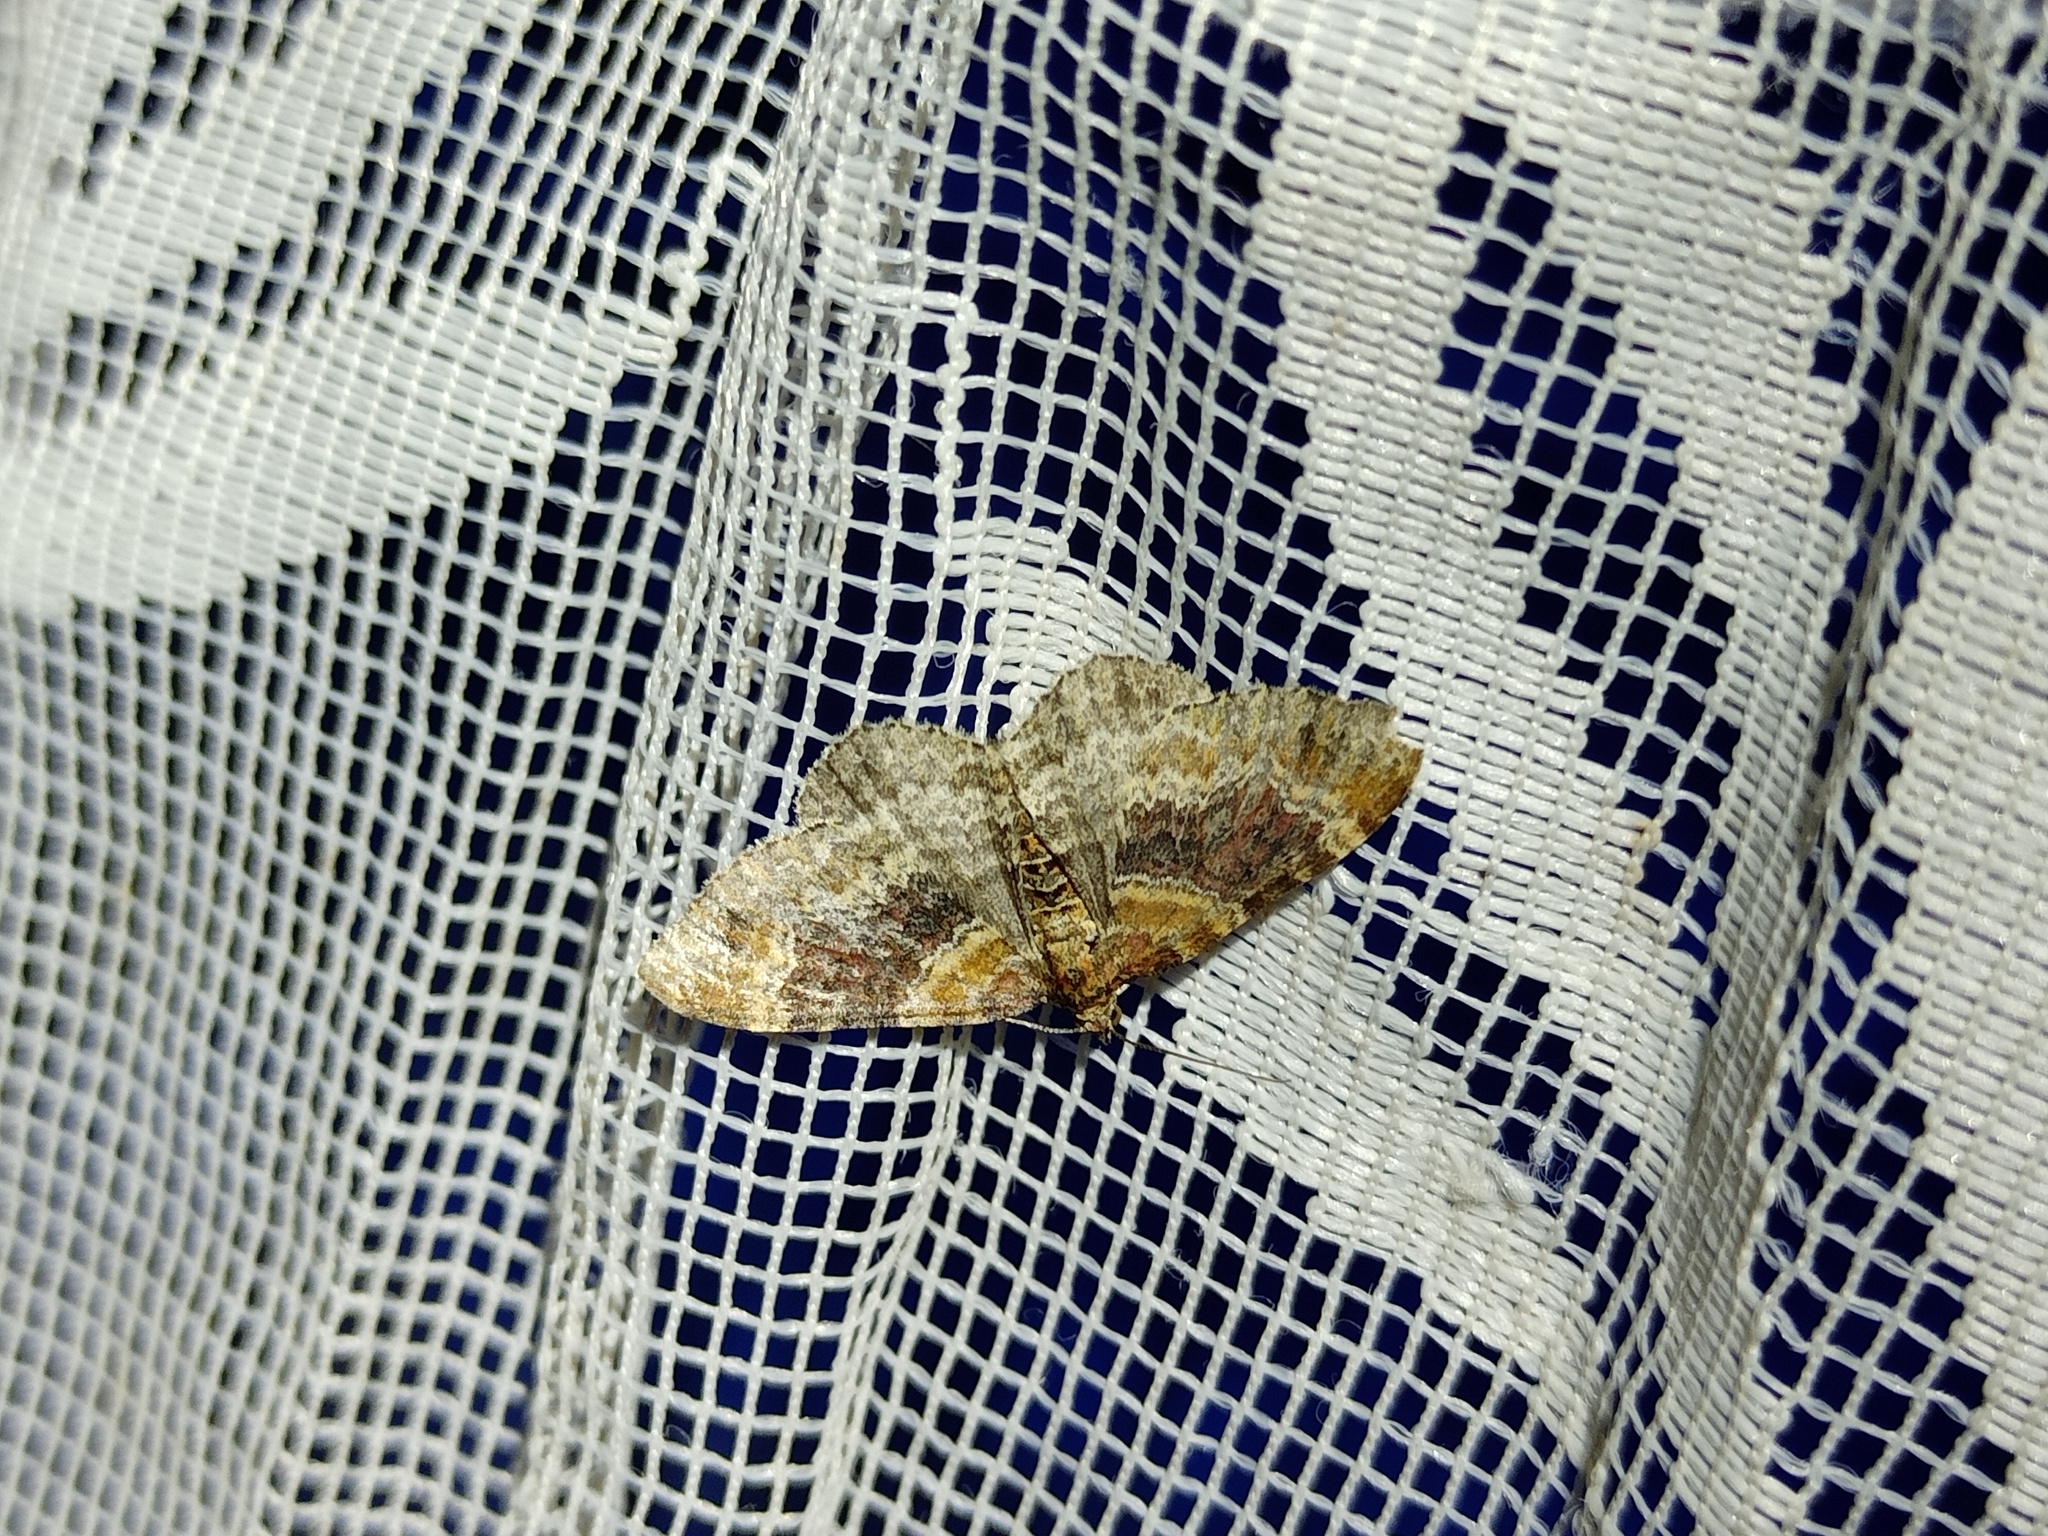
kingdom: Animalia
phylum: Arthropoda
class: Insecta
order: Lepidoptera
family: Geometridae
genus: Xanthorhoe
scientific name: Xanthorhoe spadicearia
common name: Red twin-spot carpet
